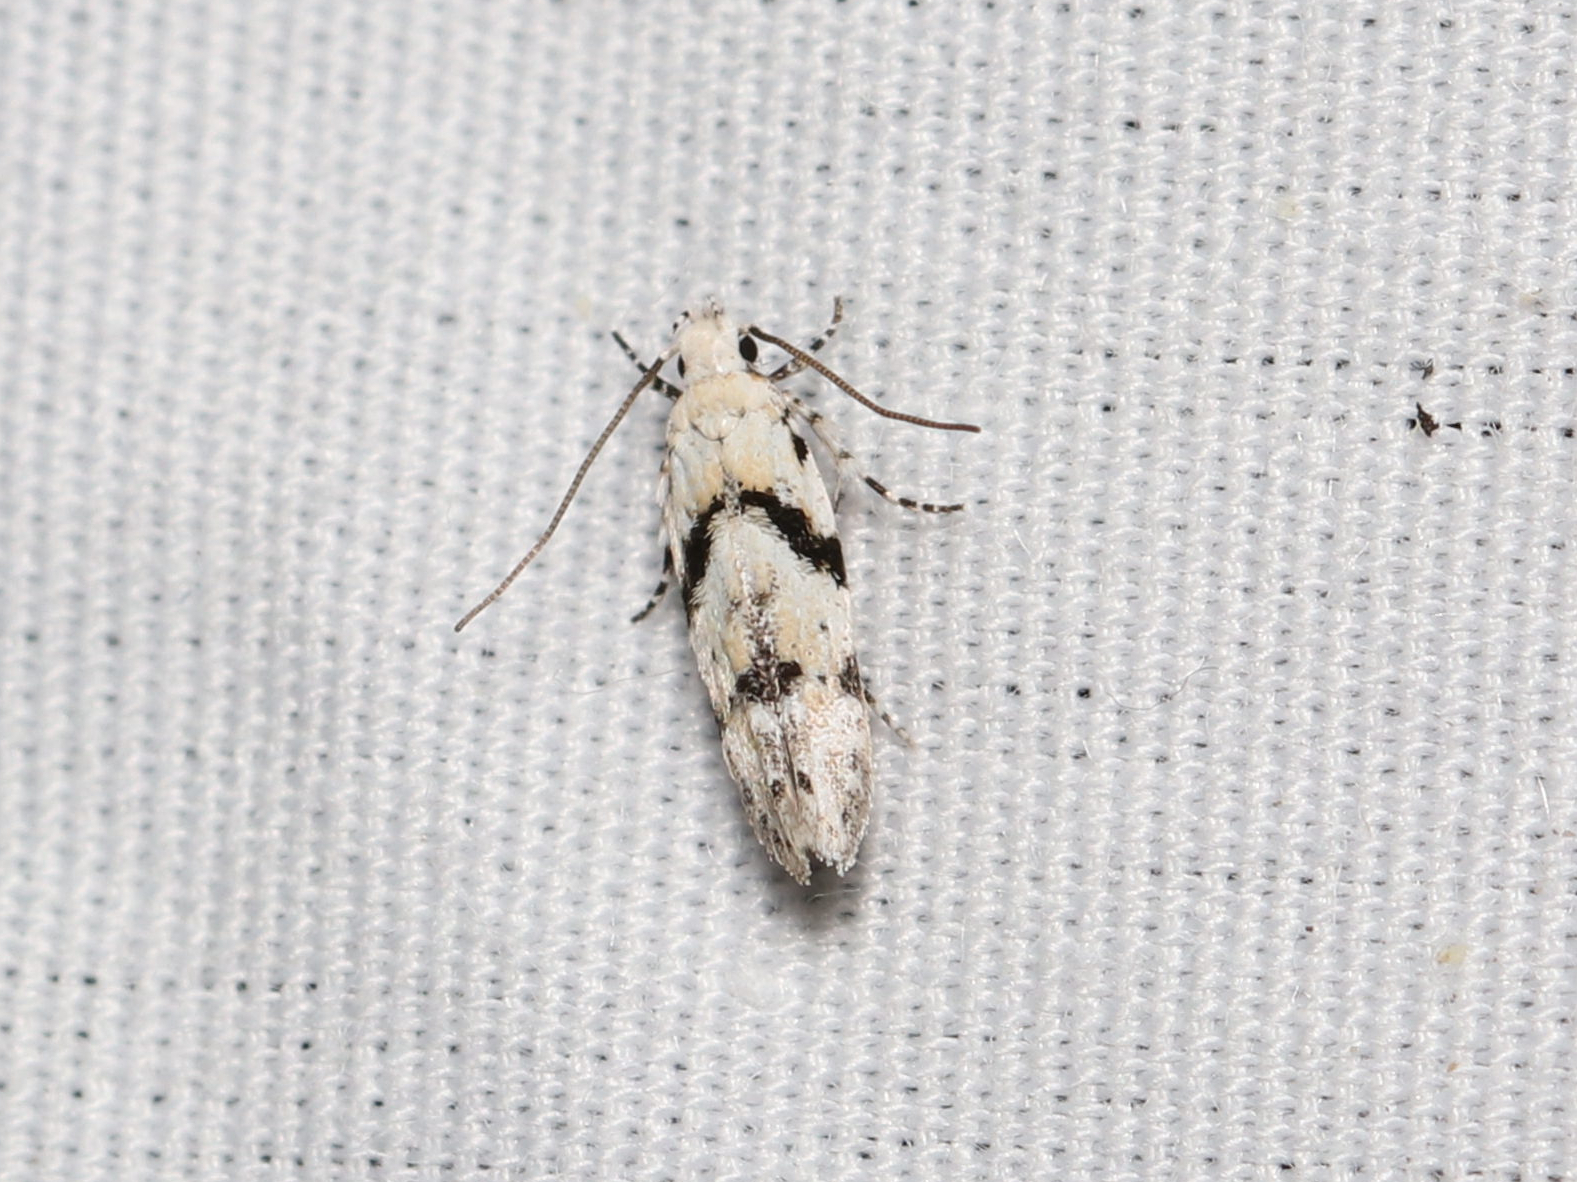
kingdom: Animalia
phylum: Arthropoda
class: Insecta
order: Lepidoptera
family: Gelechiidae
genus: Arogalea
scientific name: Arogalea cristifasciella
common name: White stripe-backed moth
